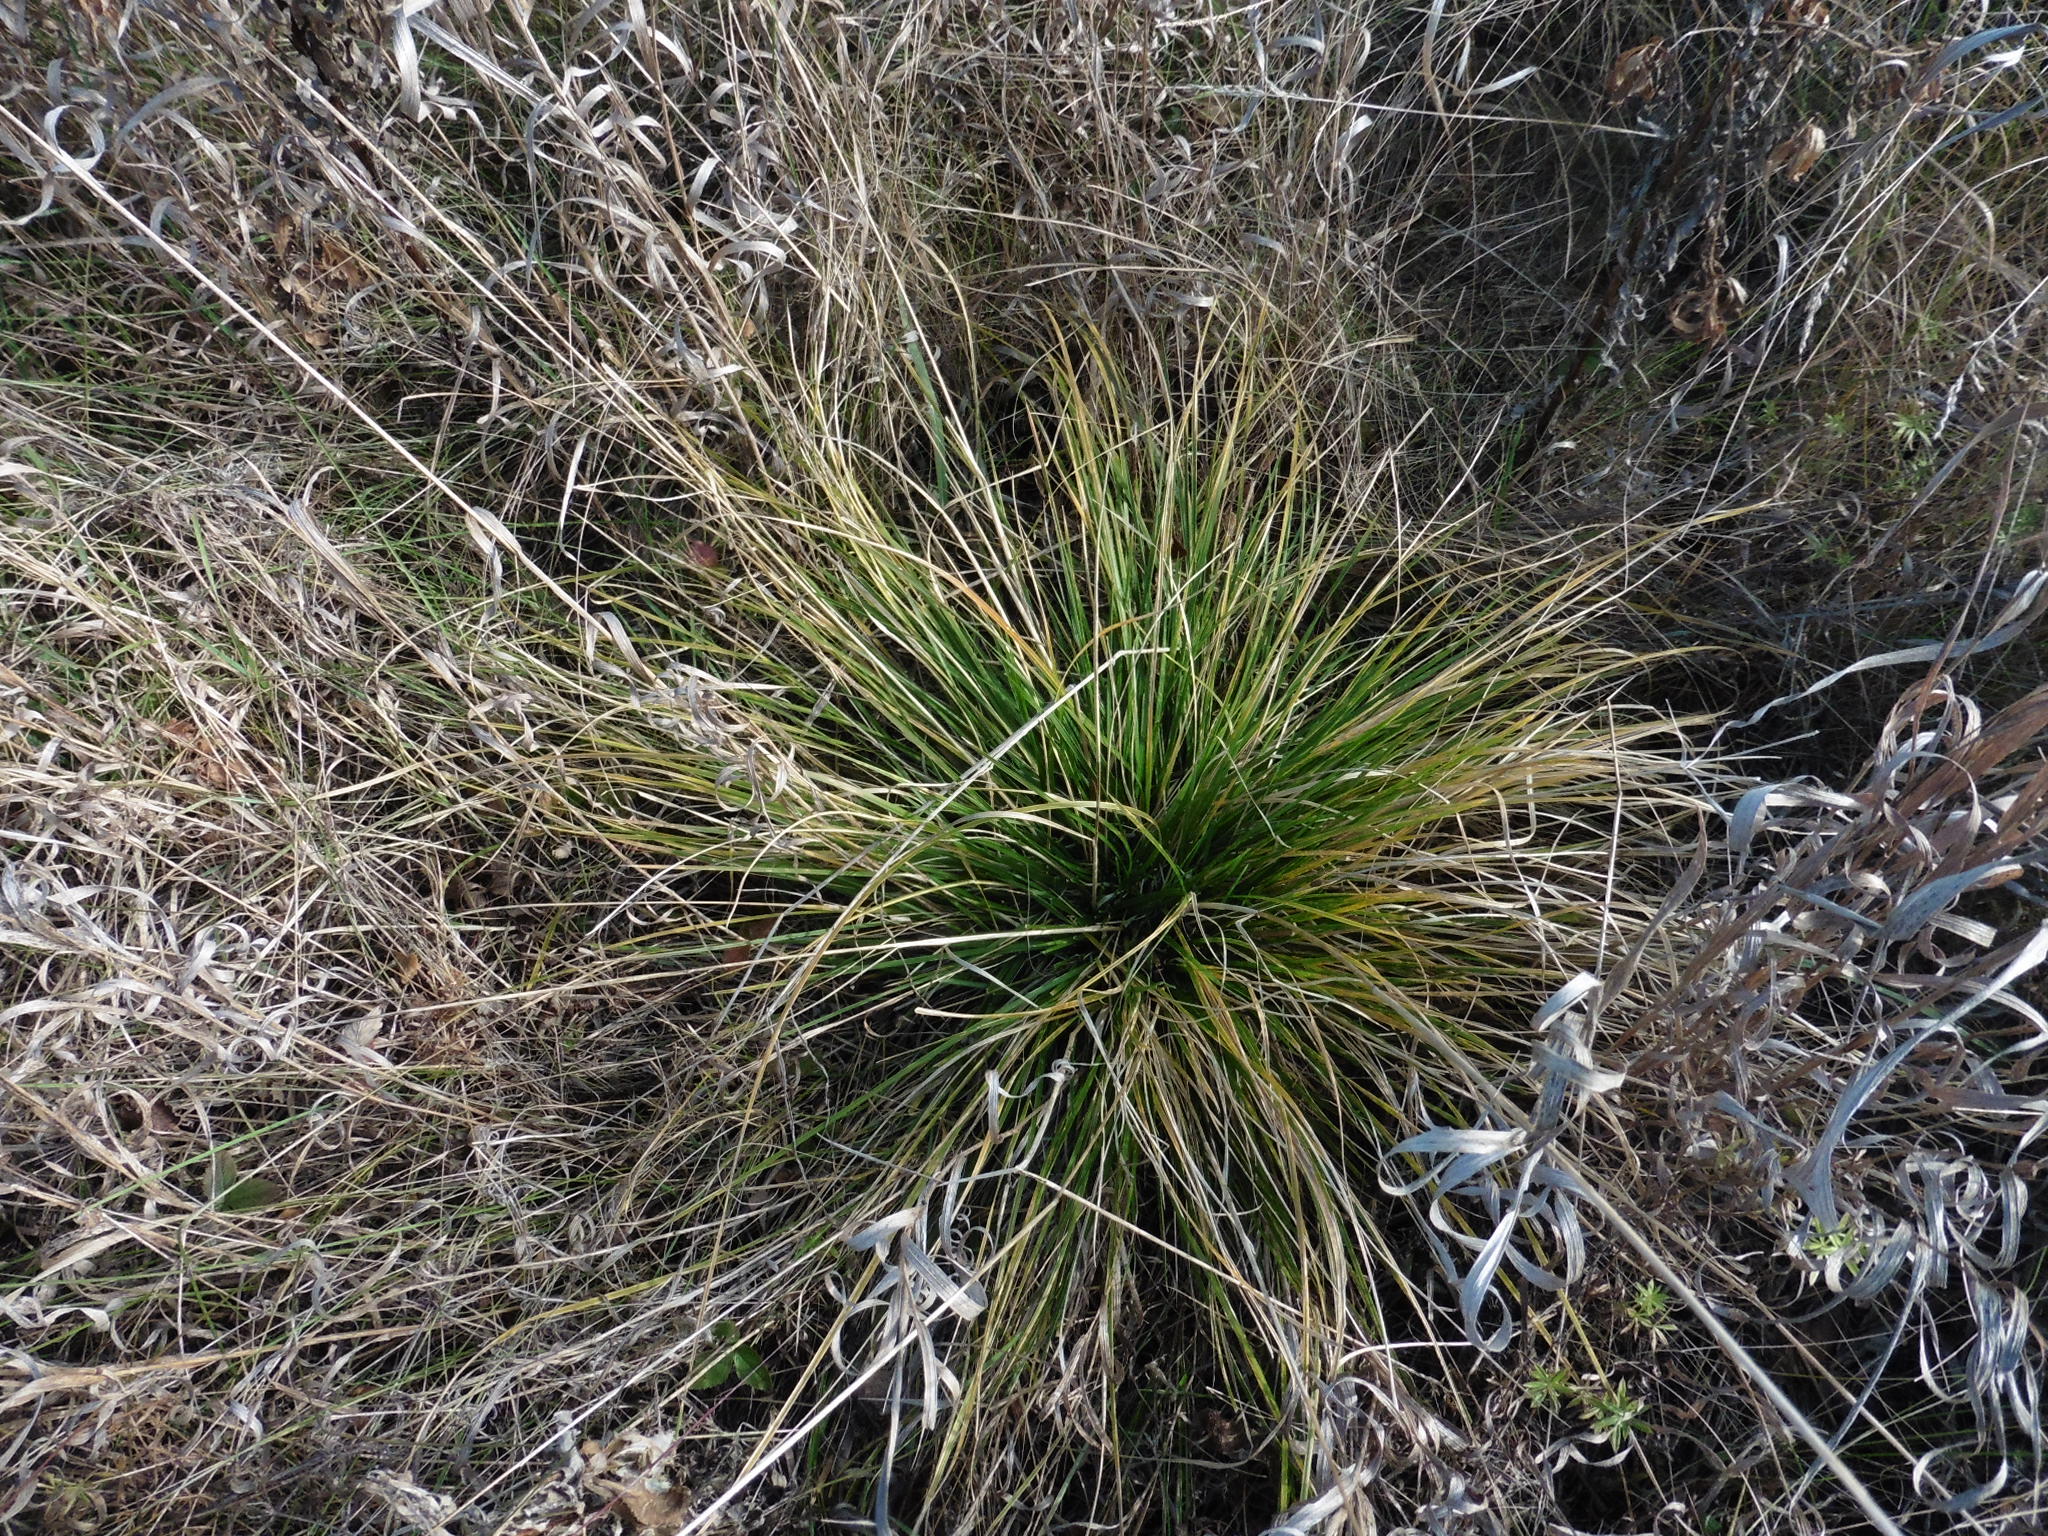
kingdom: Plantae
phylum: Tracheophyta
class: Liliopsida
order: Poales
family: Poaceae
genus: Deschampsia
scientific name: Deschampsia cespitosa
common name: Tufted hair-grass
